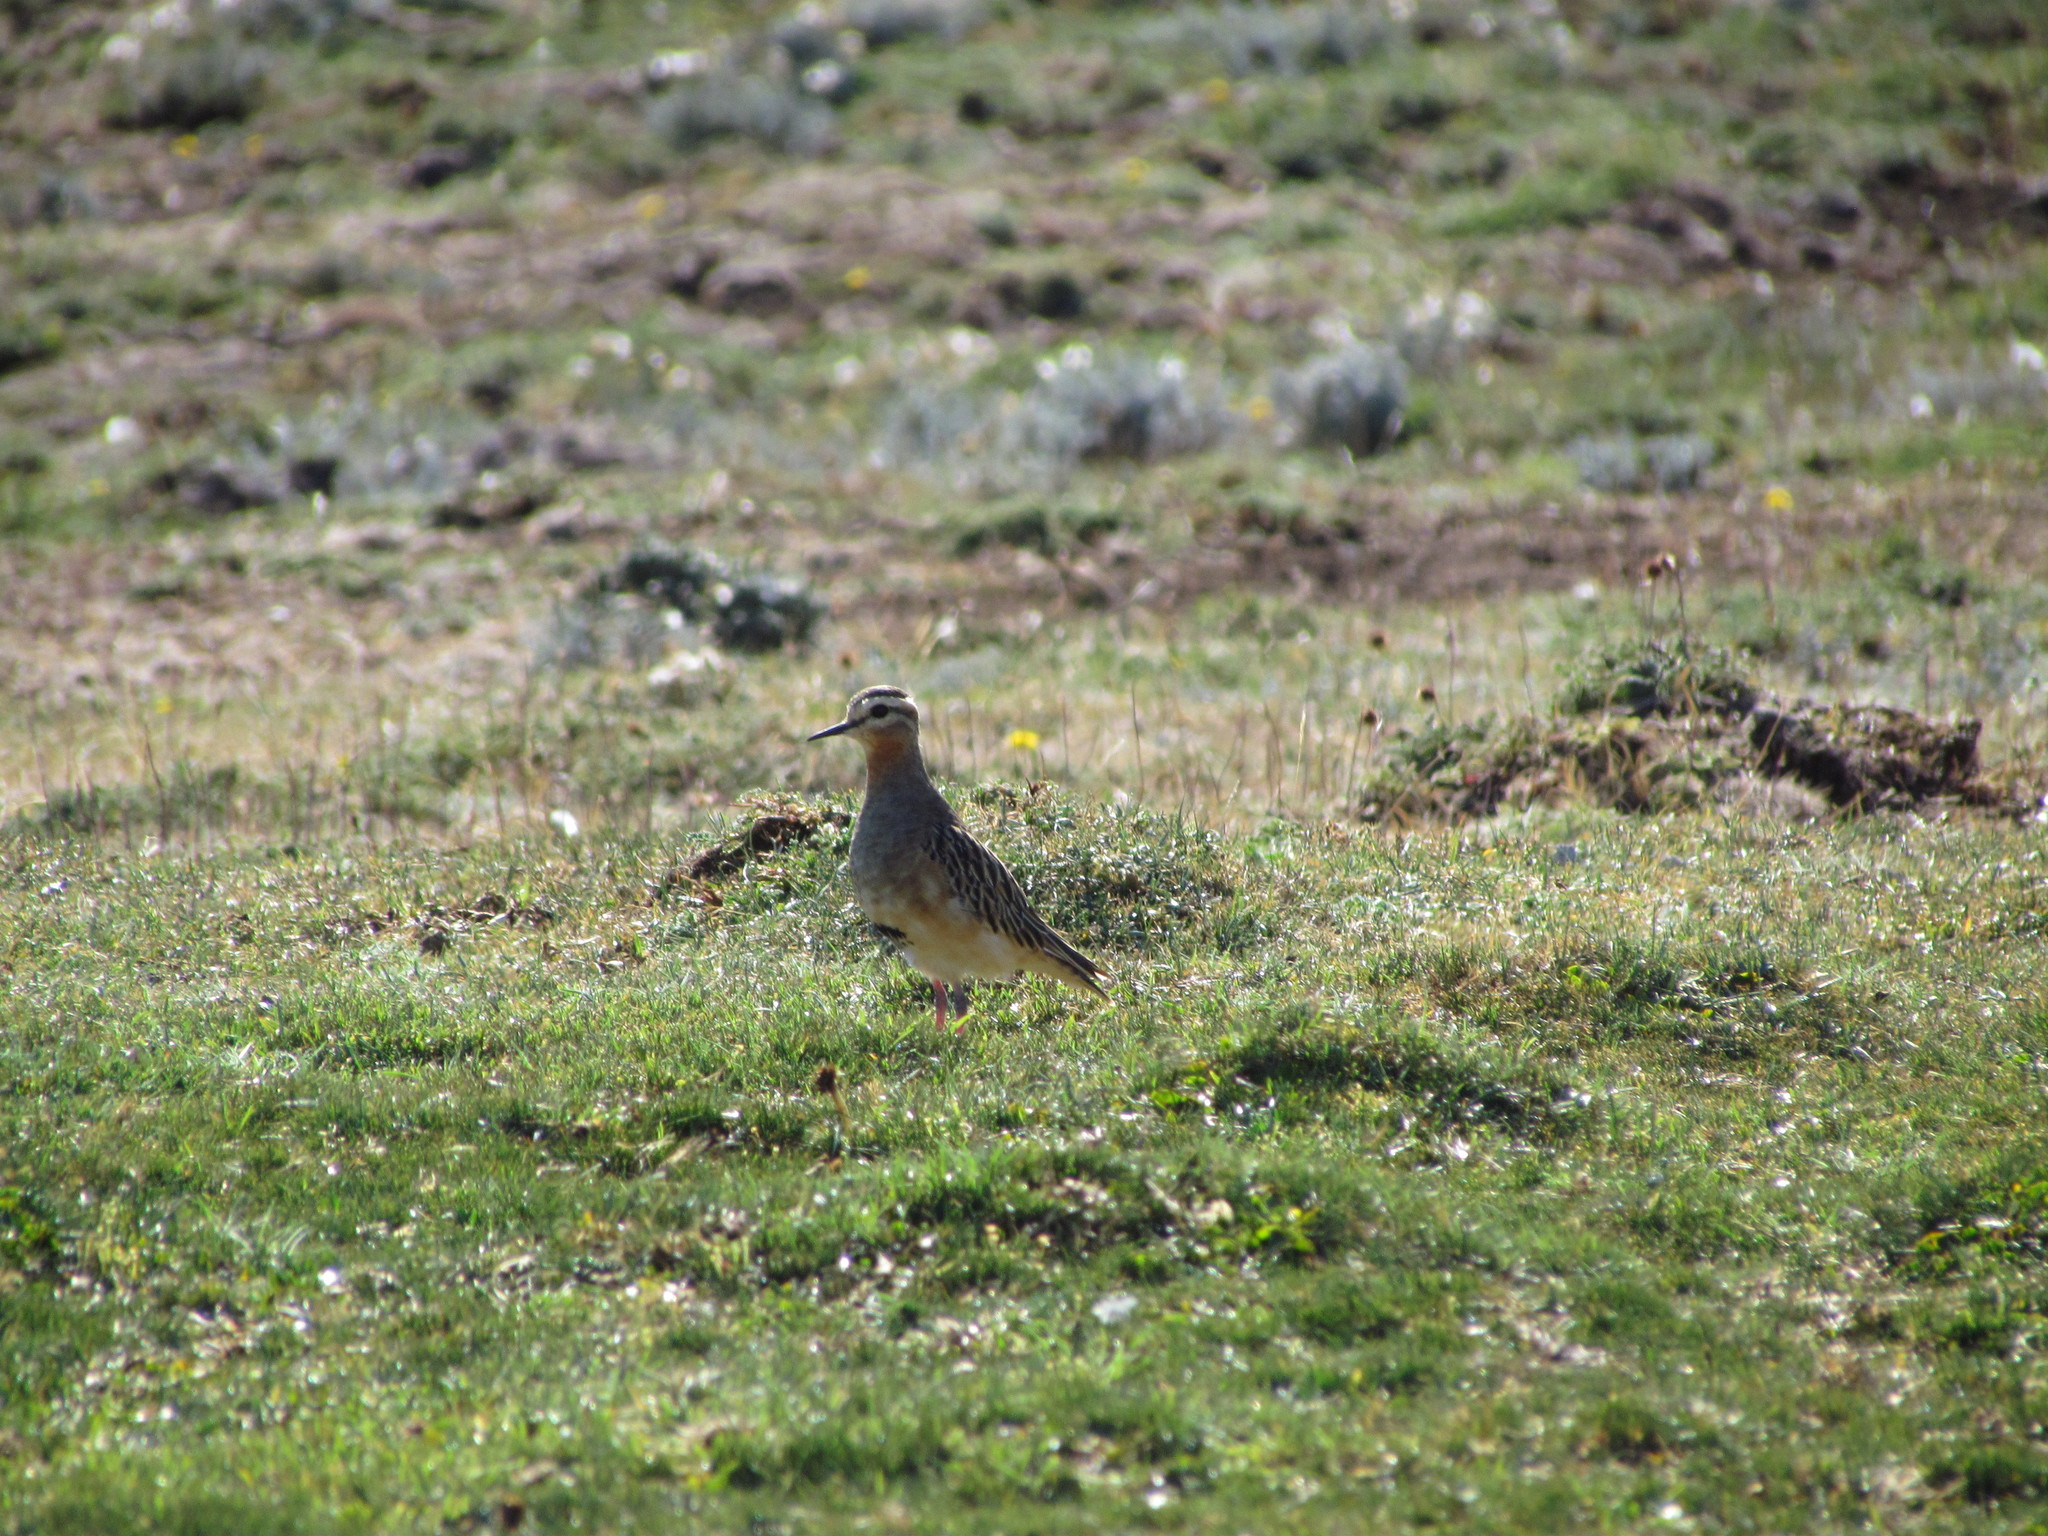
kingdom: Animalia
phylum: Chordata
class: Aves
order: Charadriiformes
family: Charadriidae
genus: Oreopholus
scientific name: Oreopholus ruficollis
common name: Tawny-throated dotterel
